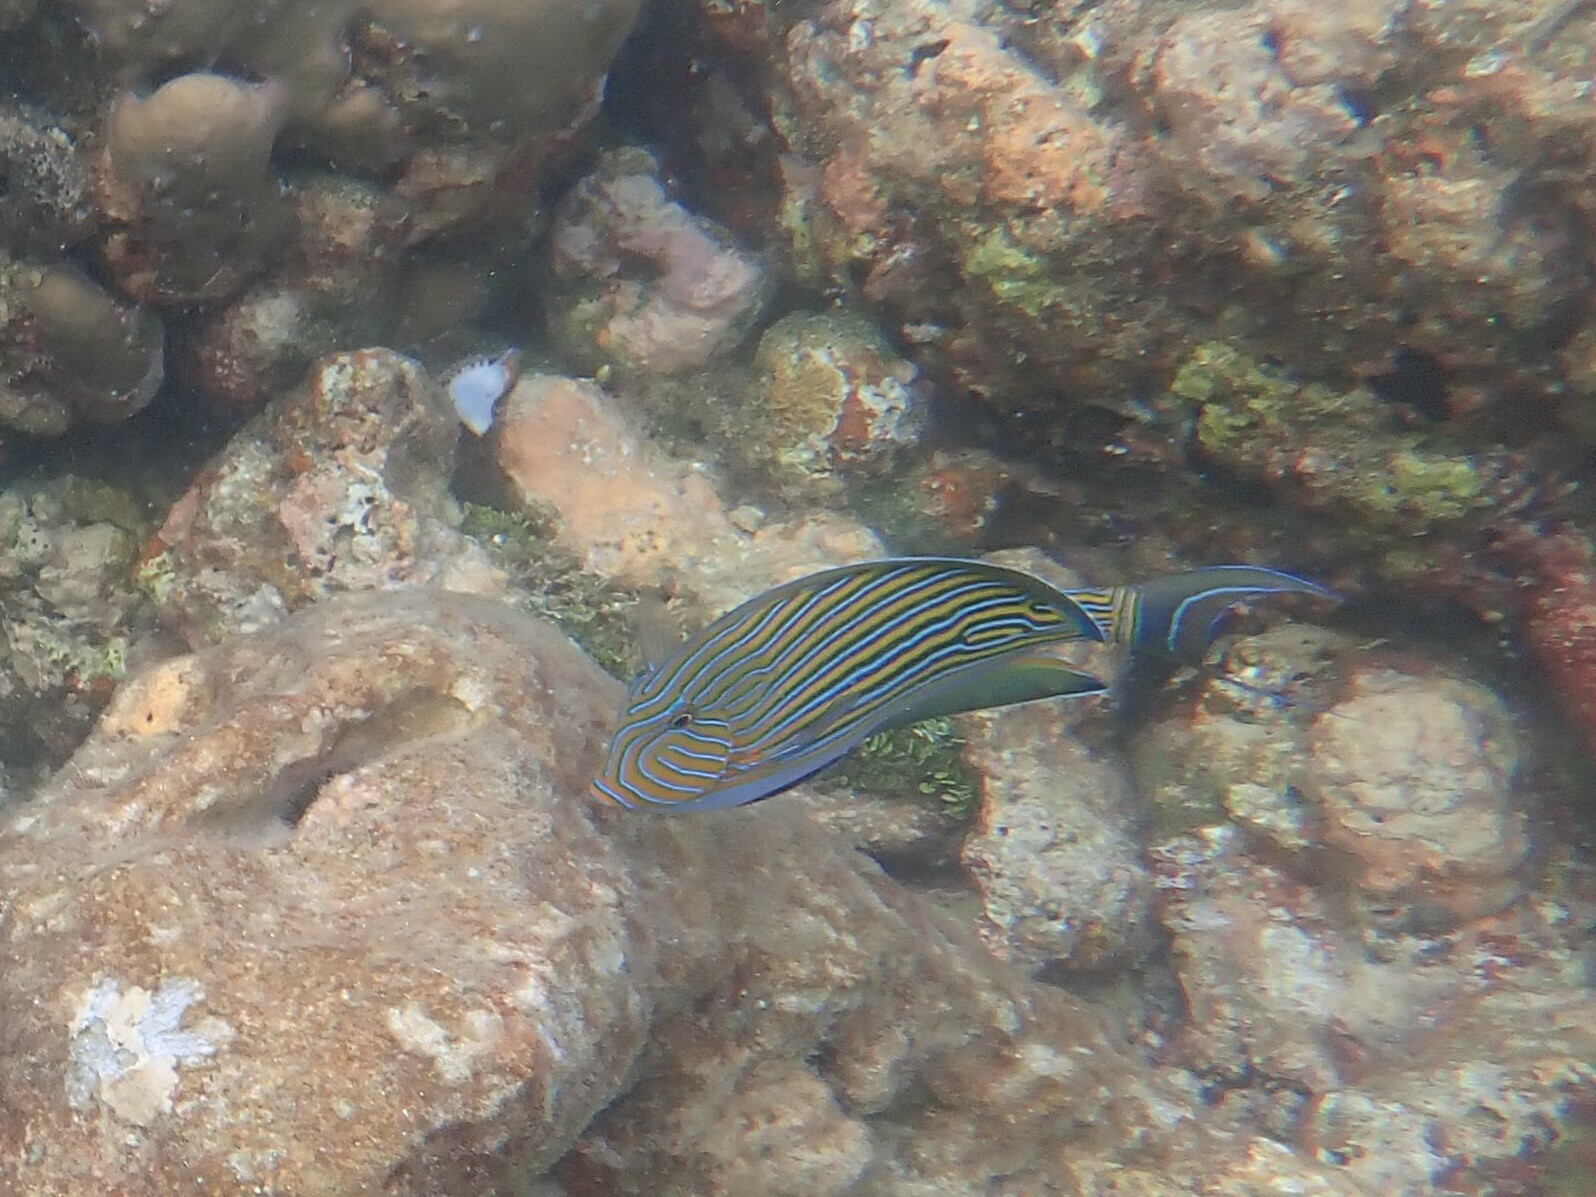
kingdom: Animalia
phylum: Chordata
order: Perciformes
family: Acanthuridae
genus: Acanthurus
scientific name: Acanthurus lineatus
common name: Striped surgeonfish
